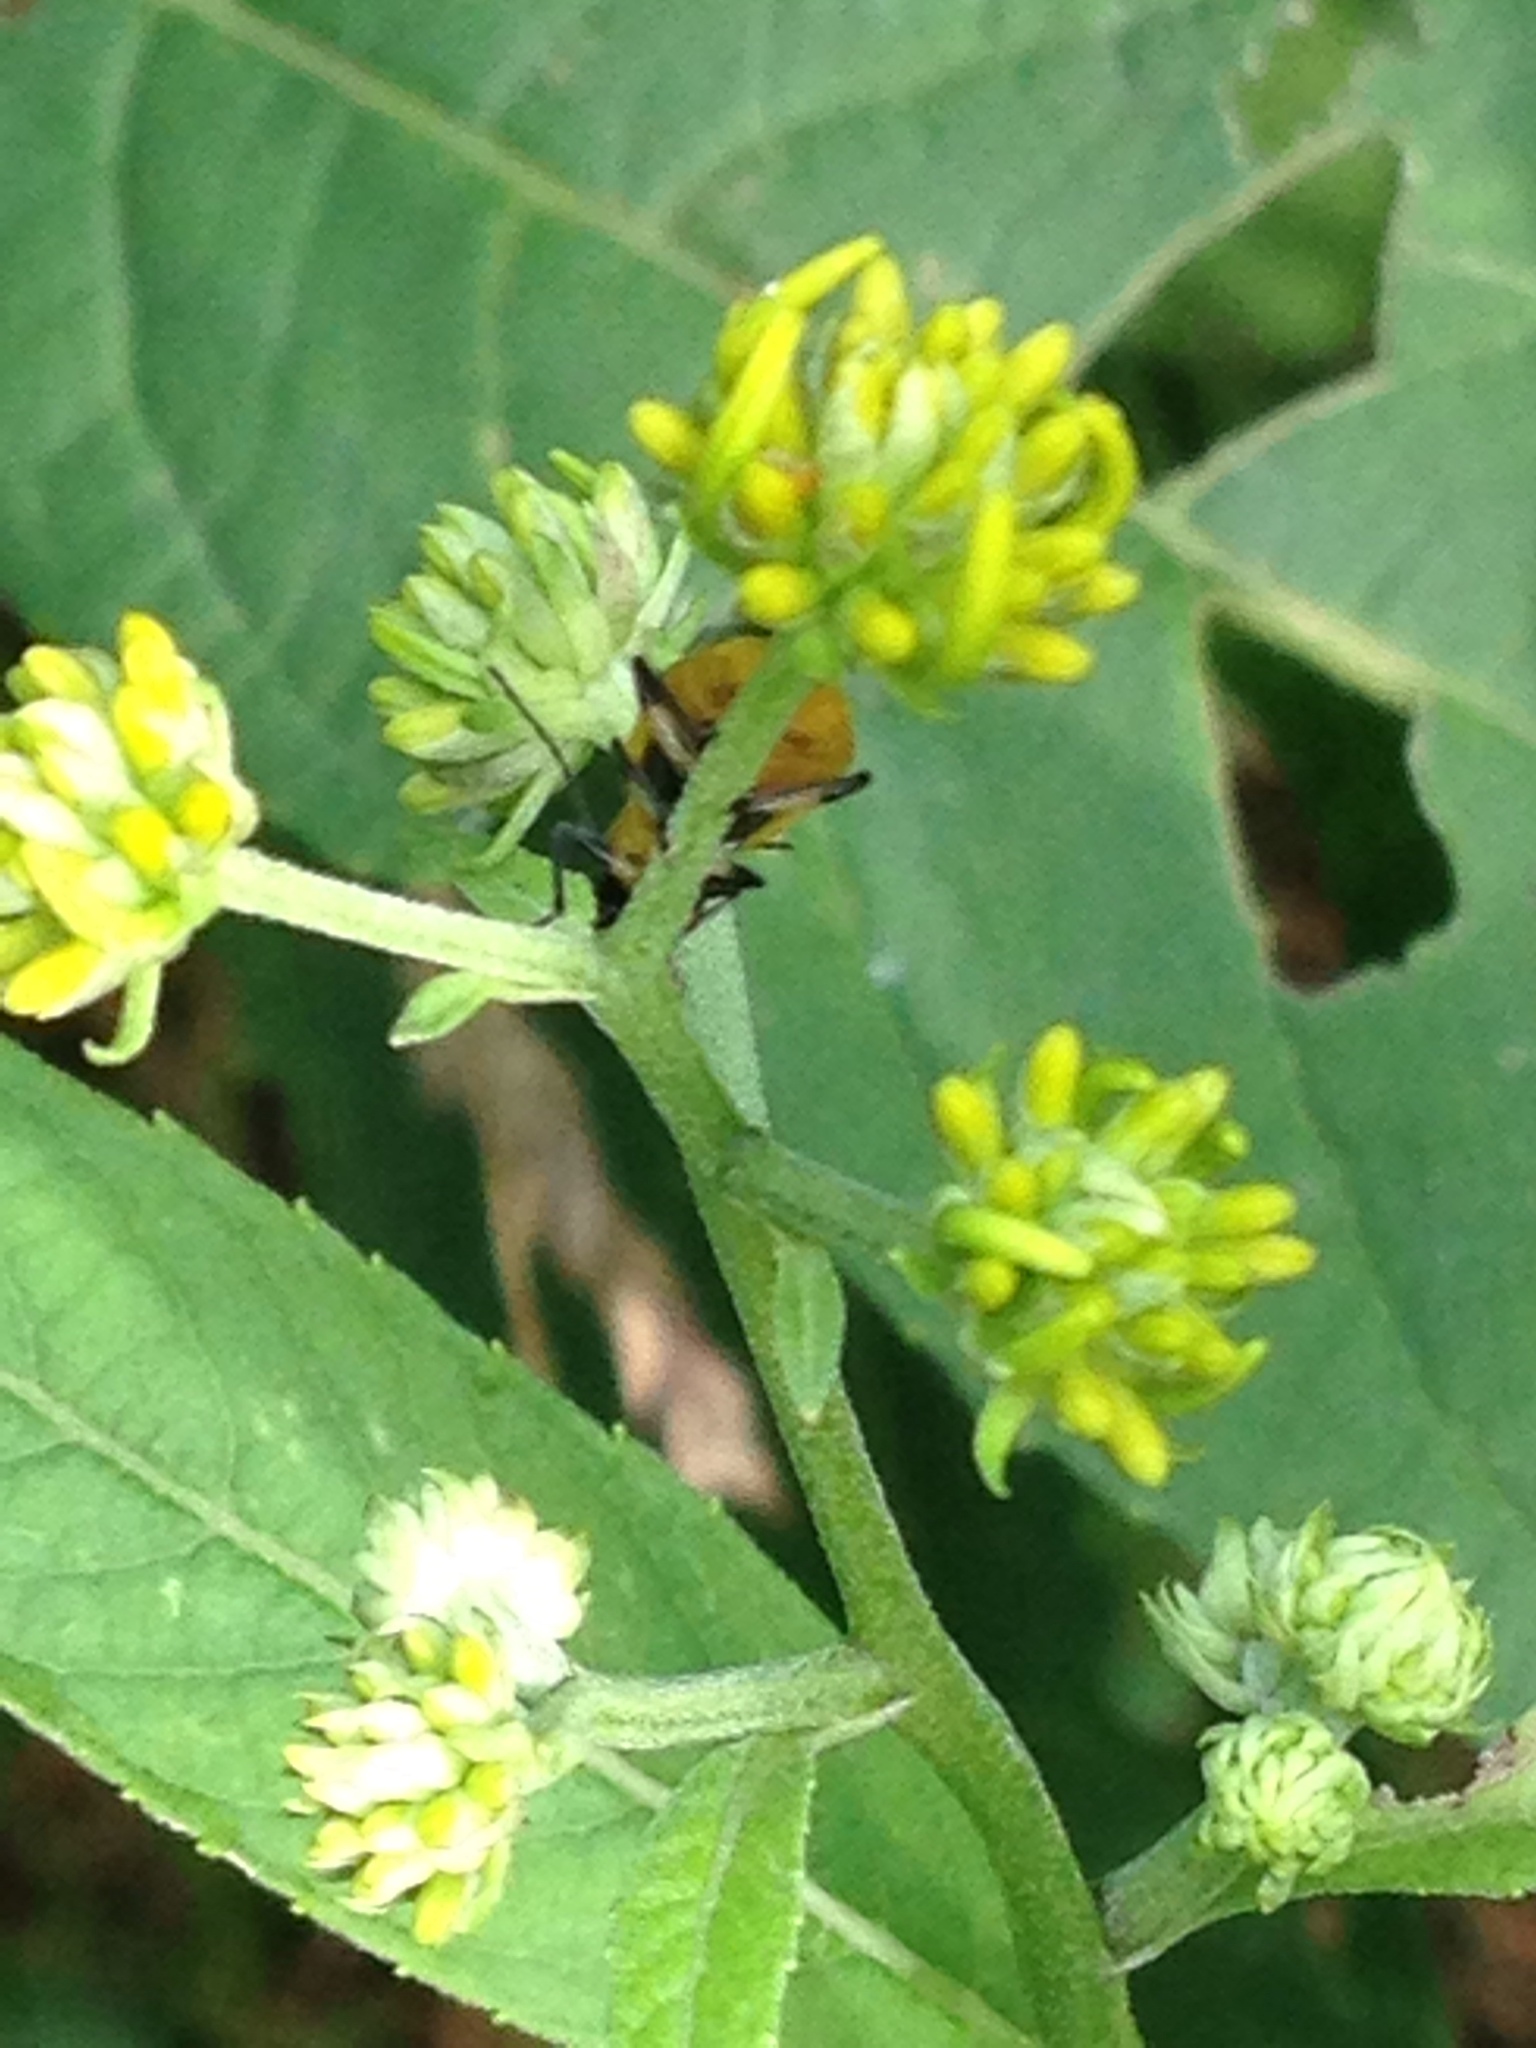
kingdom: Animalia
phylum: Arthropoda
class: Insecta
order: Coleoptera
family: Chrysomelidae
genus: Diabrotica
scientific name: Diabrotica undecimpunctata
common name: Spotted cucumber beetle
